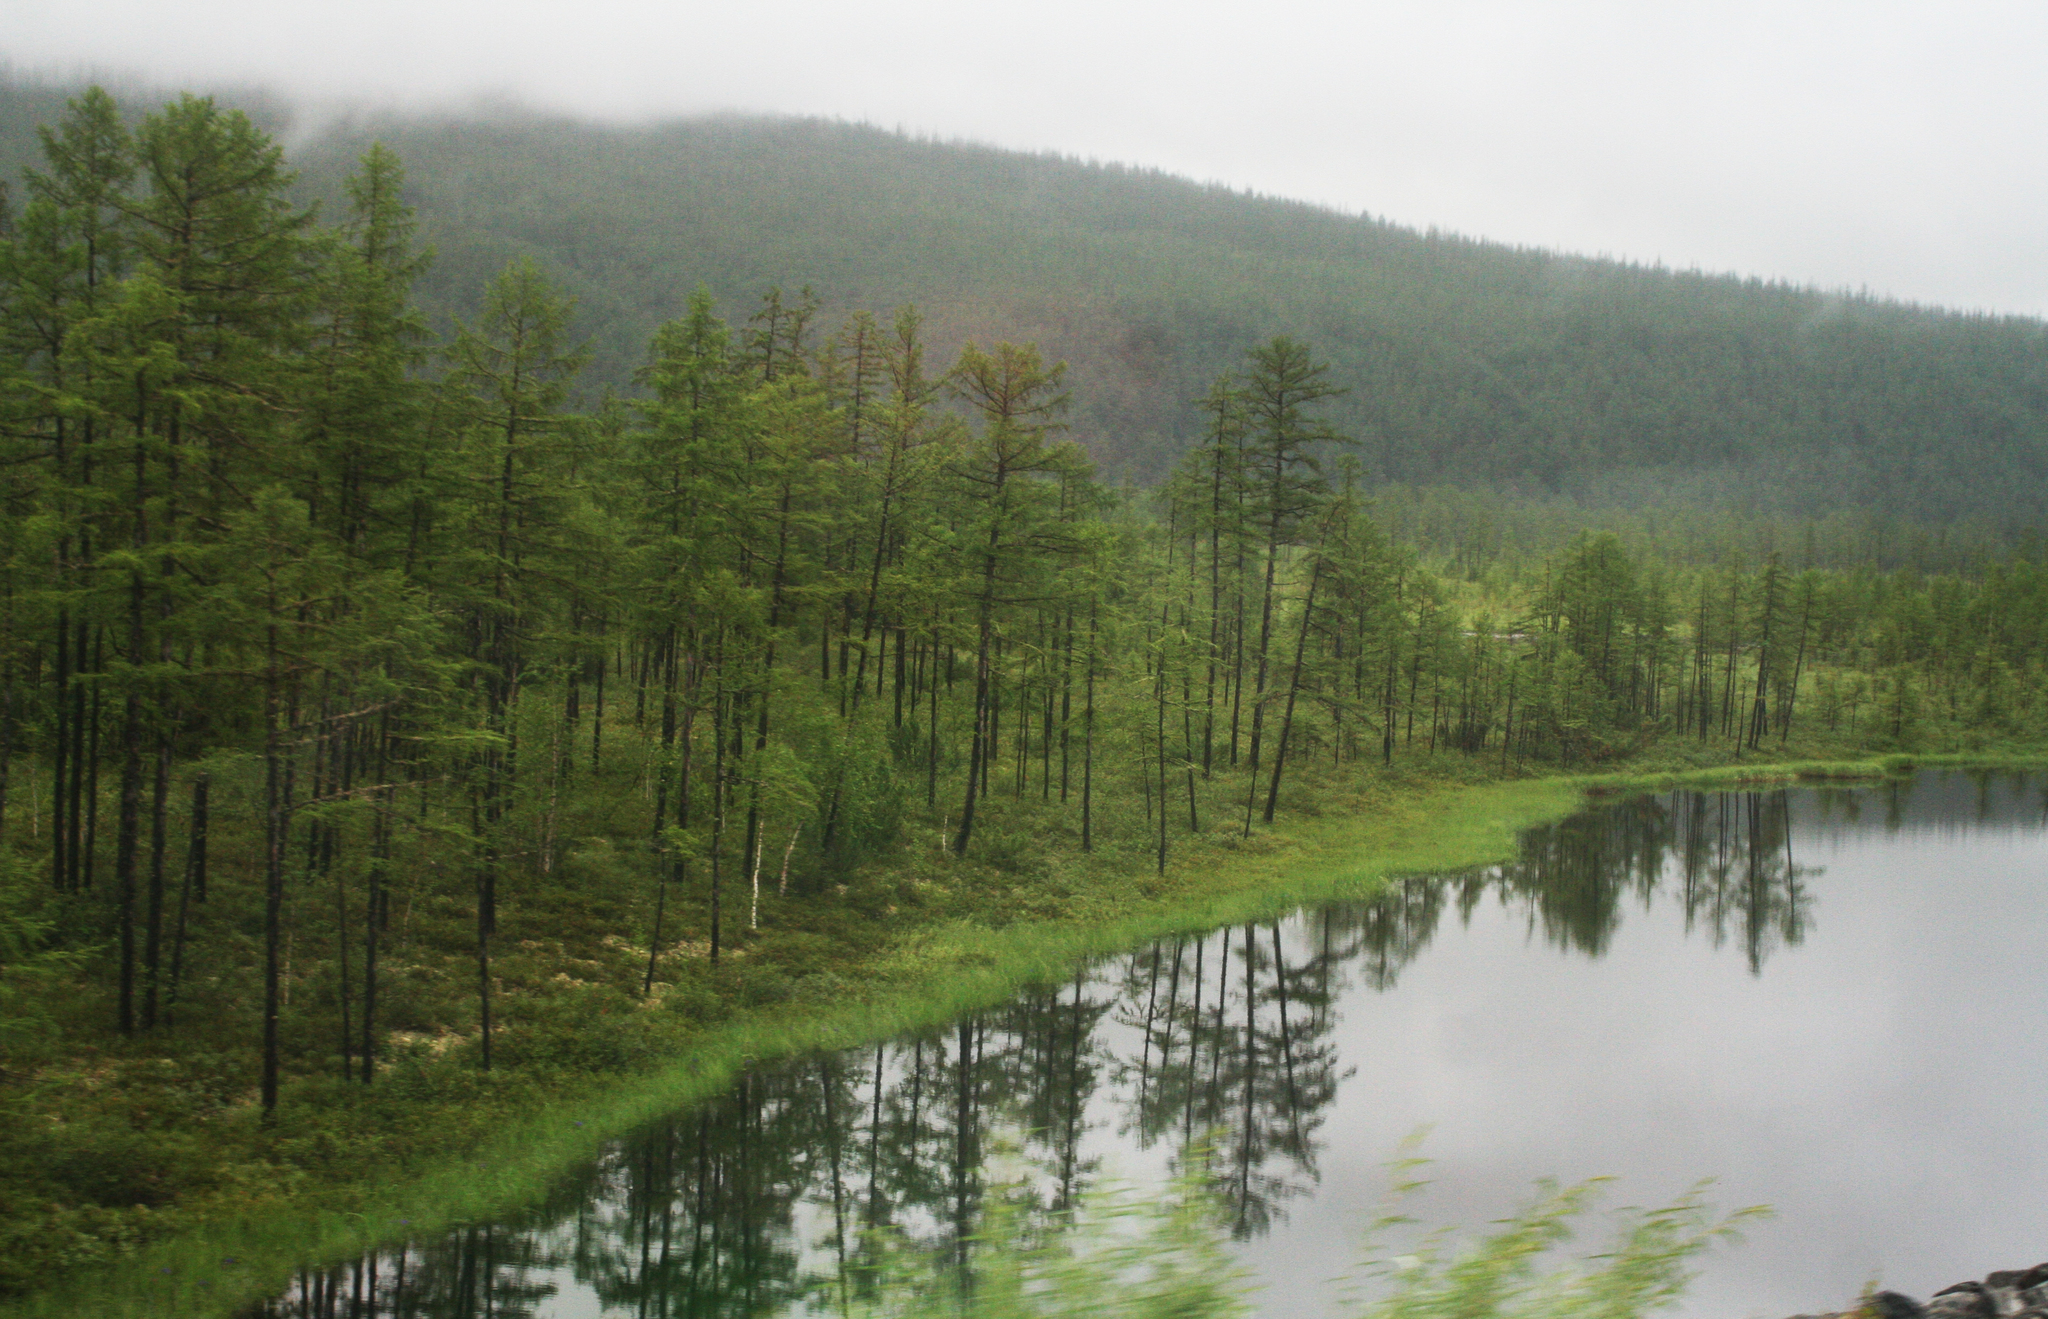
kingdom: Plantae
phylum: Tracheophyta
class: Pinopsida
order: Pinales
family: Pinaceae
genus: Larix
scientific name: Larix gmelinii
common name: Dahurian larch
